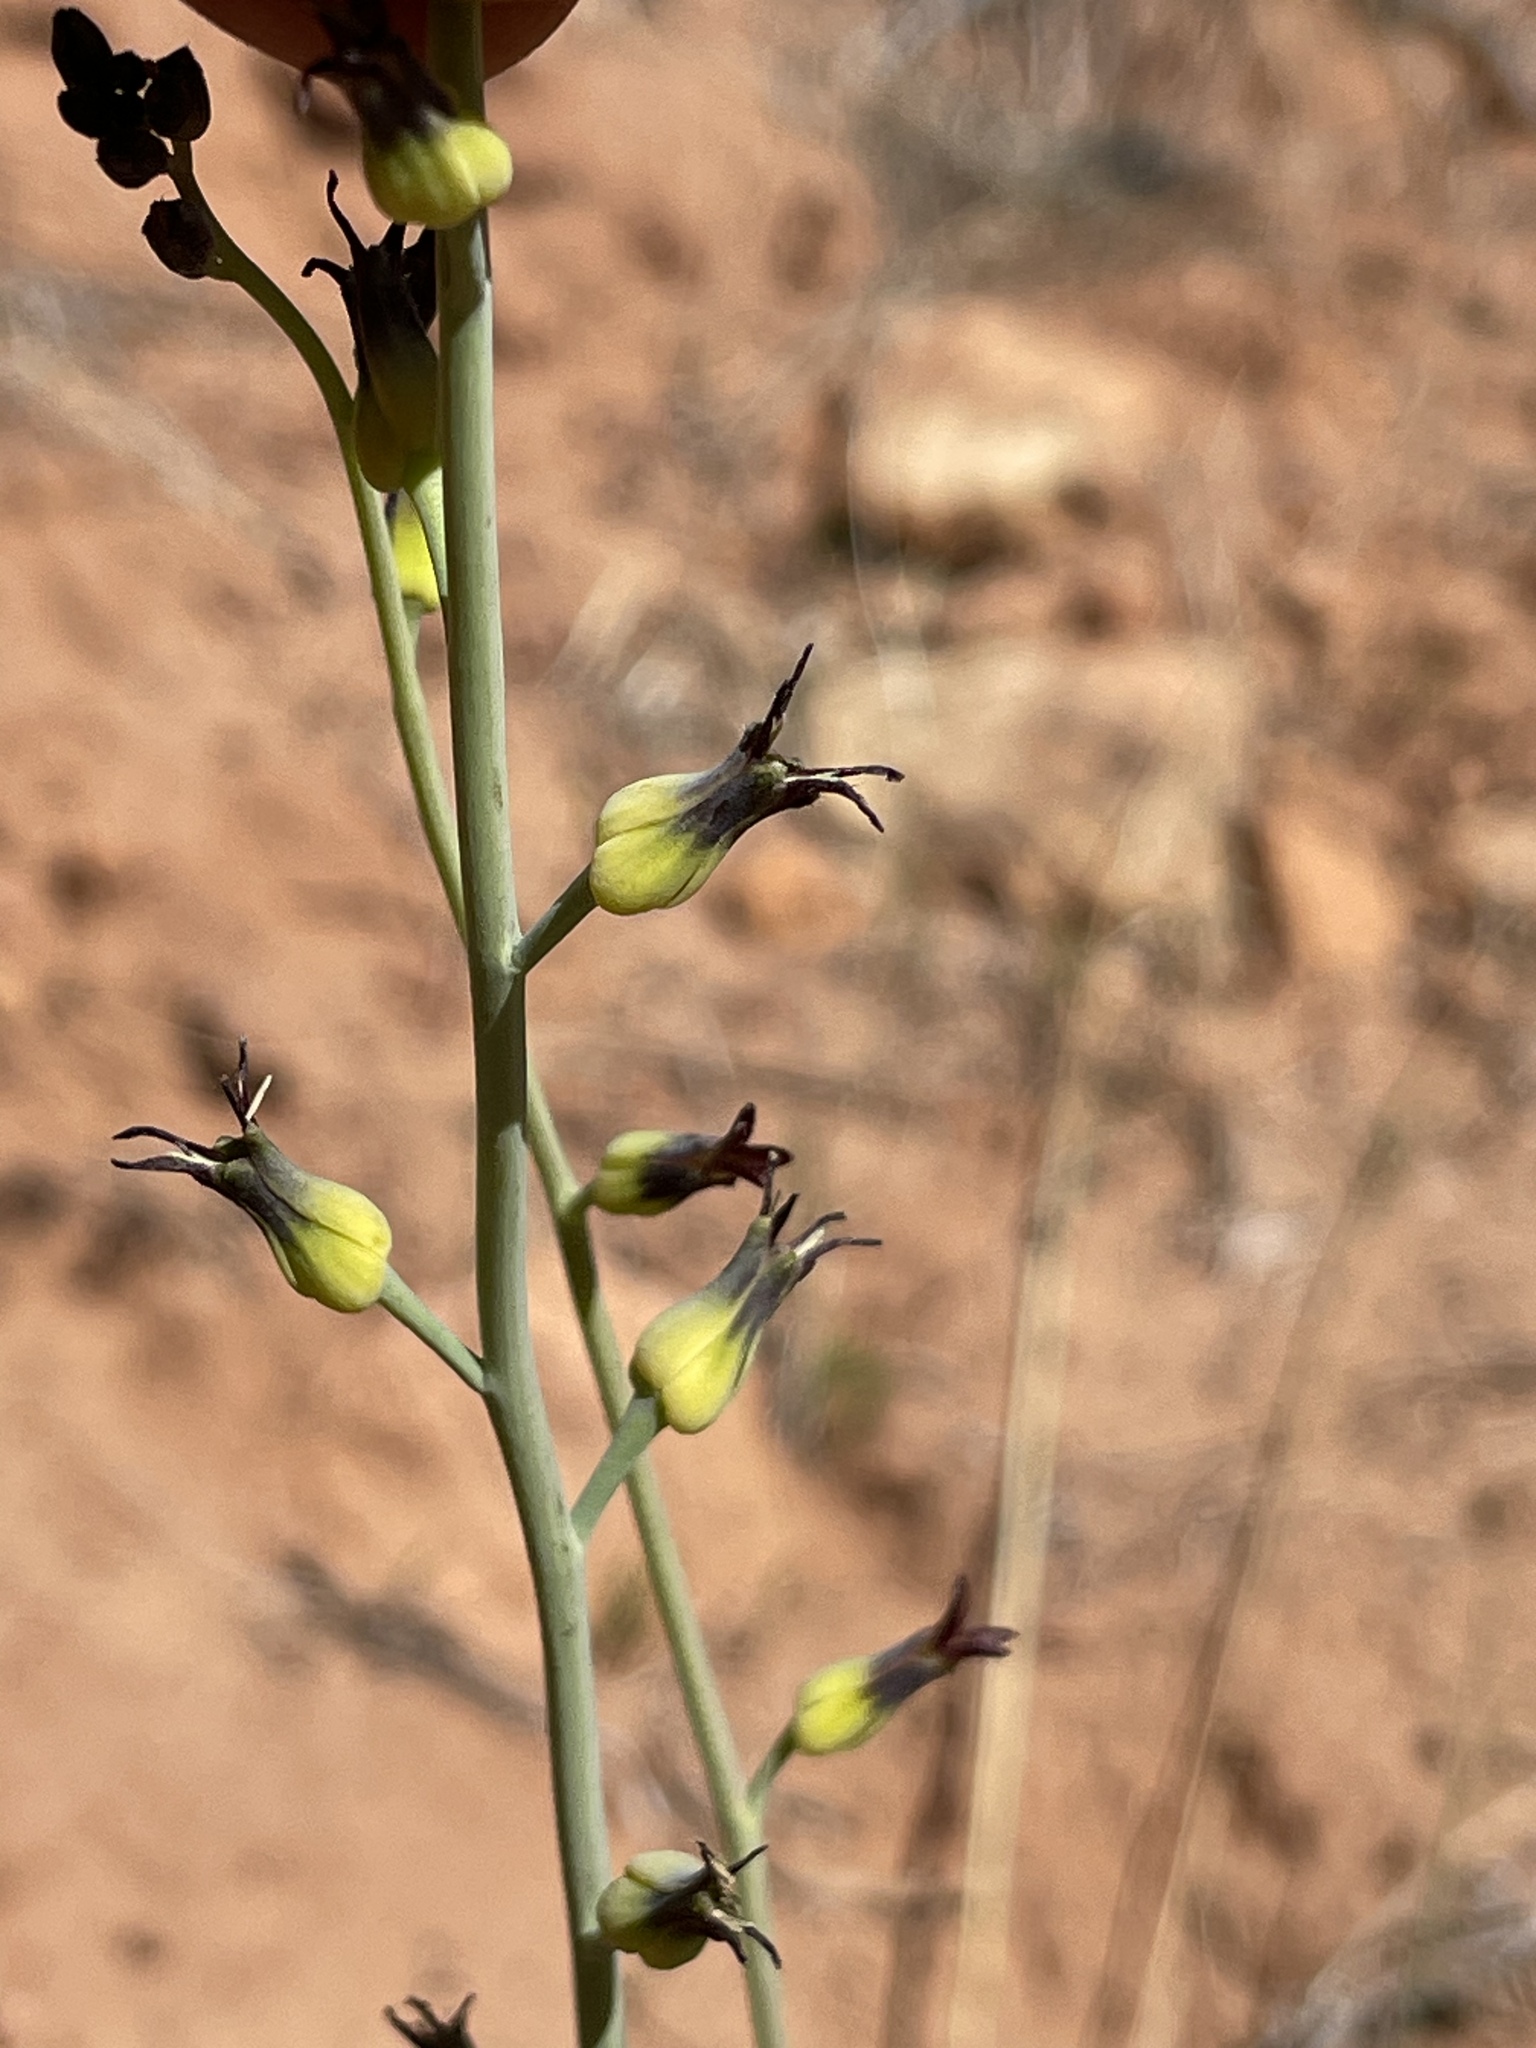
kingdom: Plantae
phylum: Tracheophyta
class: Magnoliopsida
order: Brassicales
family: Brassicaceae
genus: Streptanthus
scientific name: Streptanthus cordatus
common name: Heart-leaf jewel-flower
